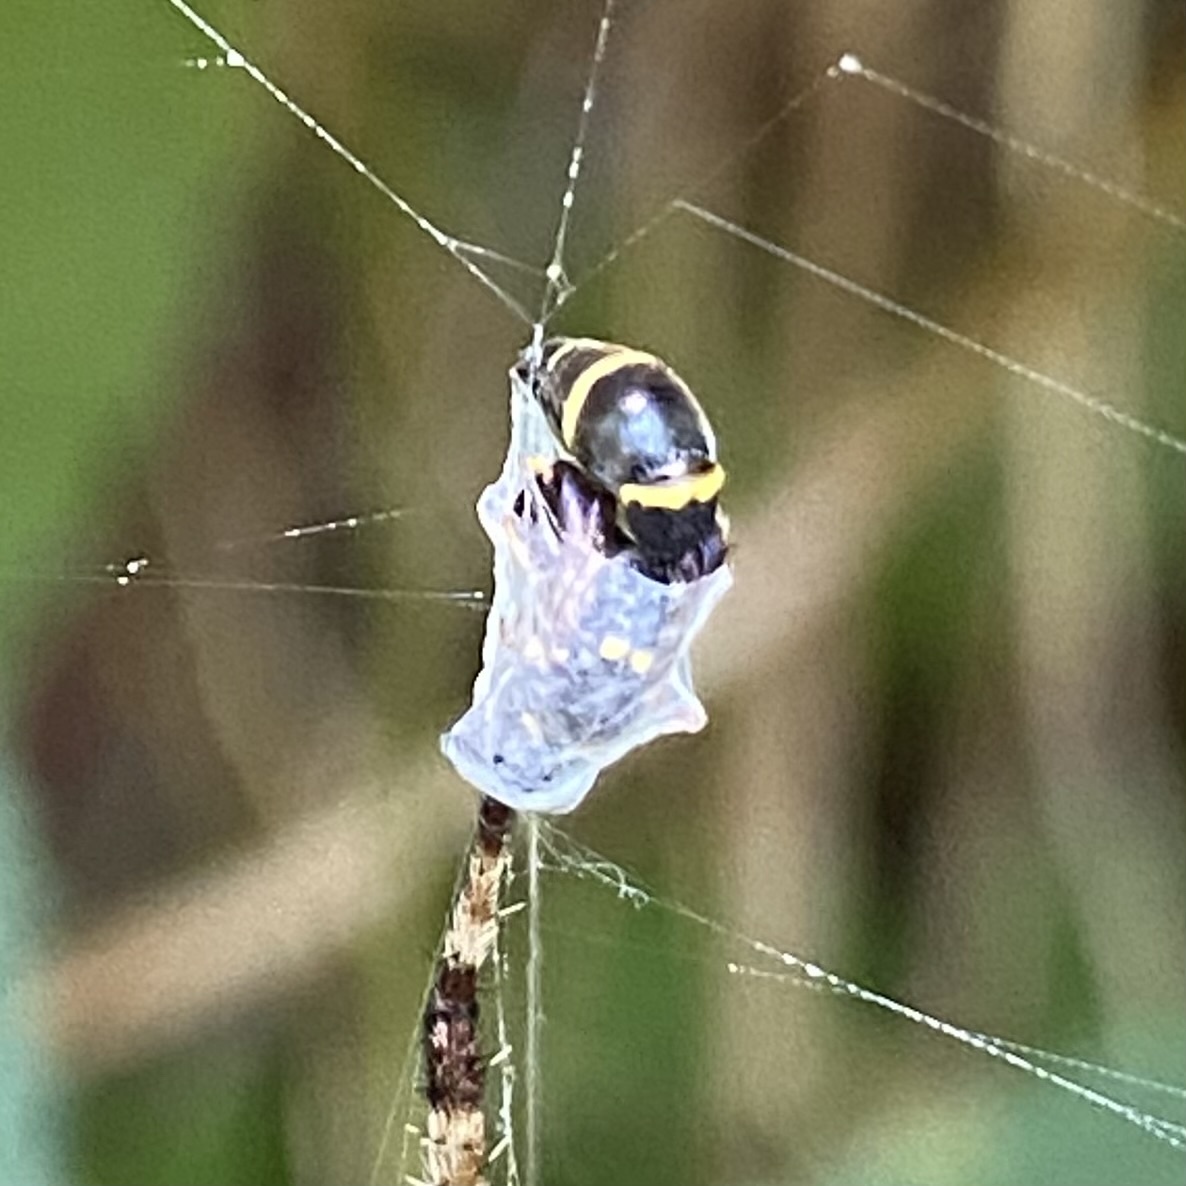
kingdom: Animalia
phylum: Arthropoda
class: Insecta
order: Hymenoptera
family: Eumenidae
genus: Symmorphus
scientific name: Symmorphus
